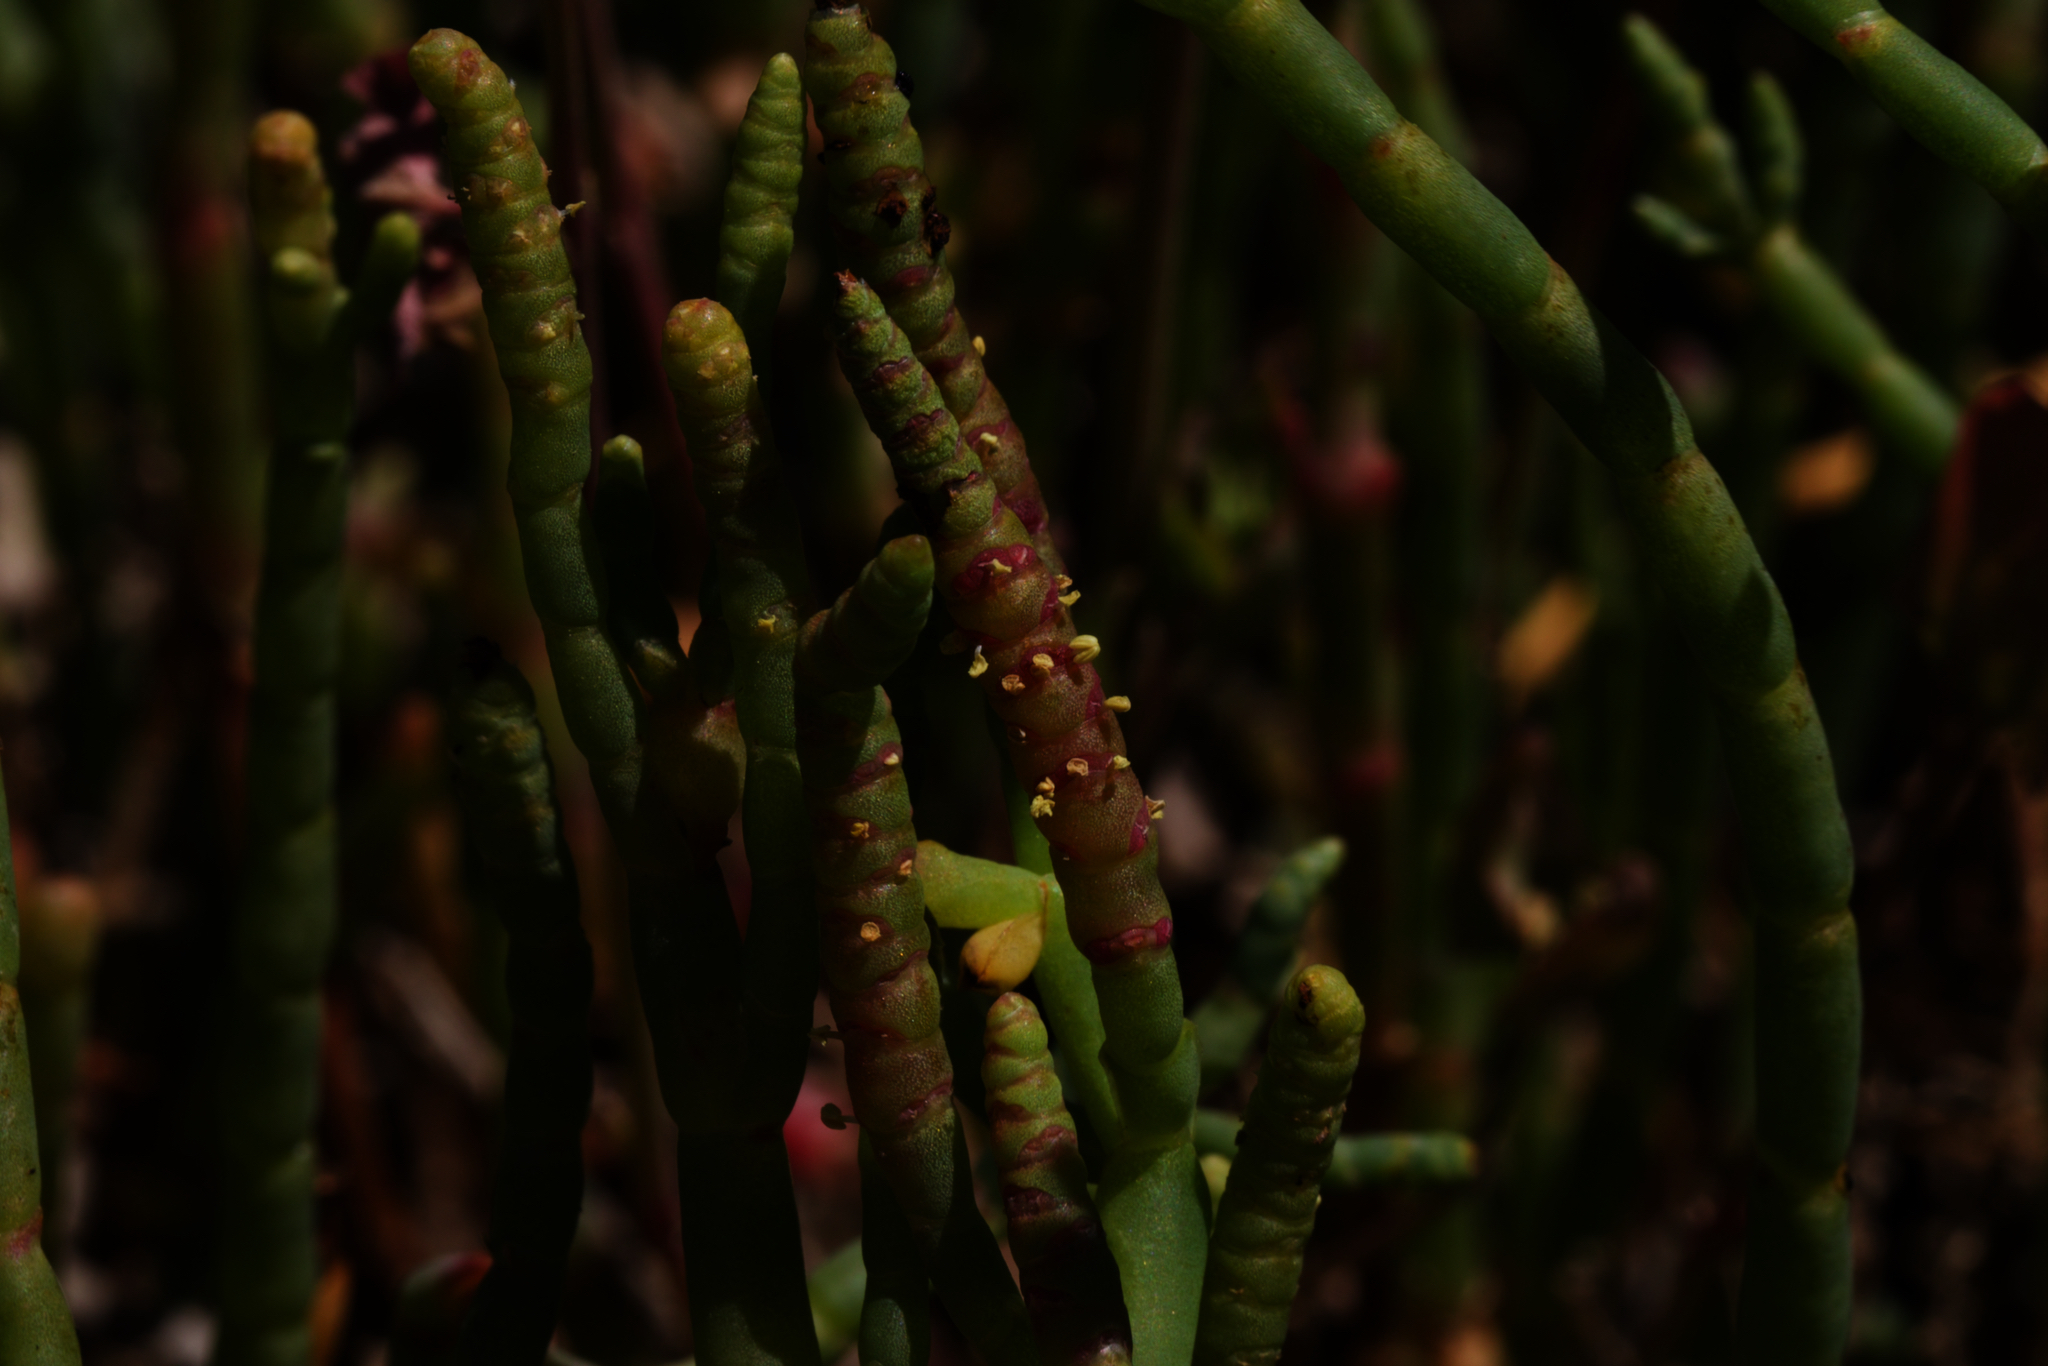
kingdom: Plantae
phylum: Tracheophyta
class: Magnoliopsida
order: Caryophyllales
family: Amaranthaceae
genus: Salicornia
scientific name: Salicornia pacifica
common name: Pacific glasswort
